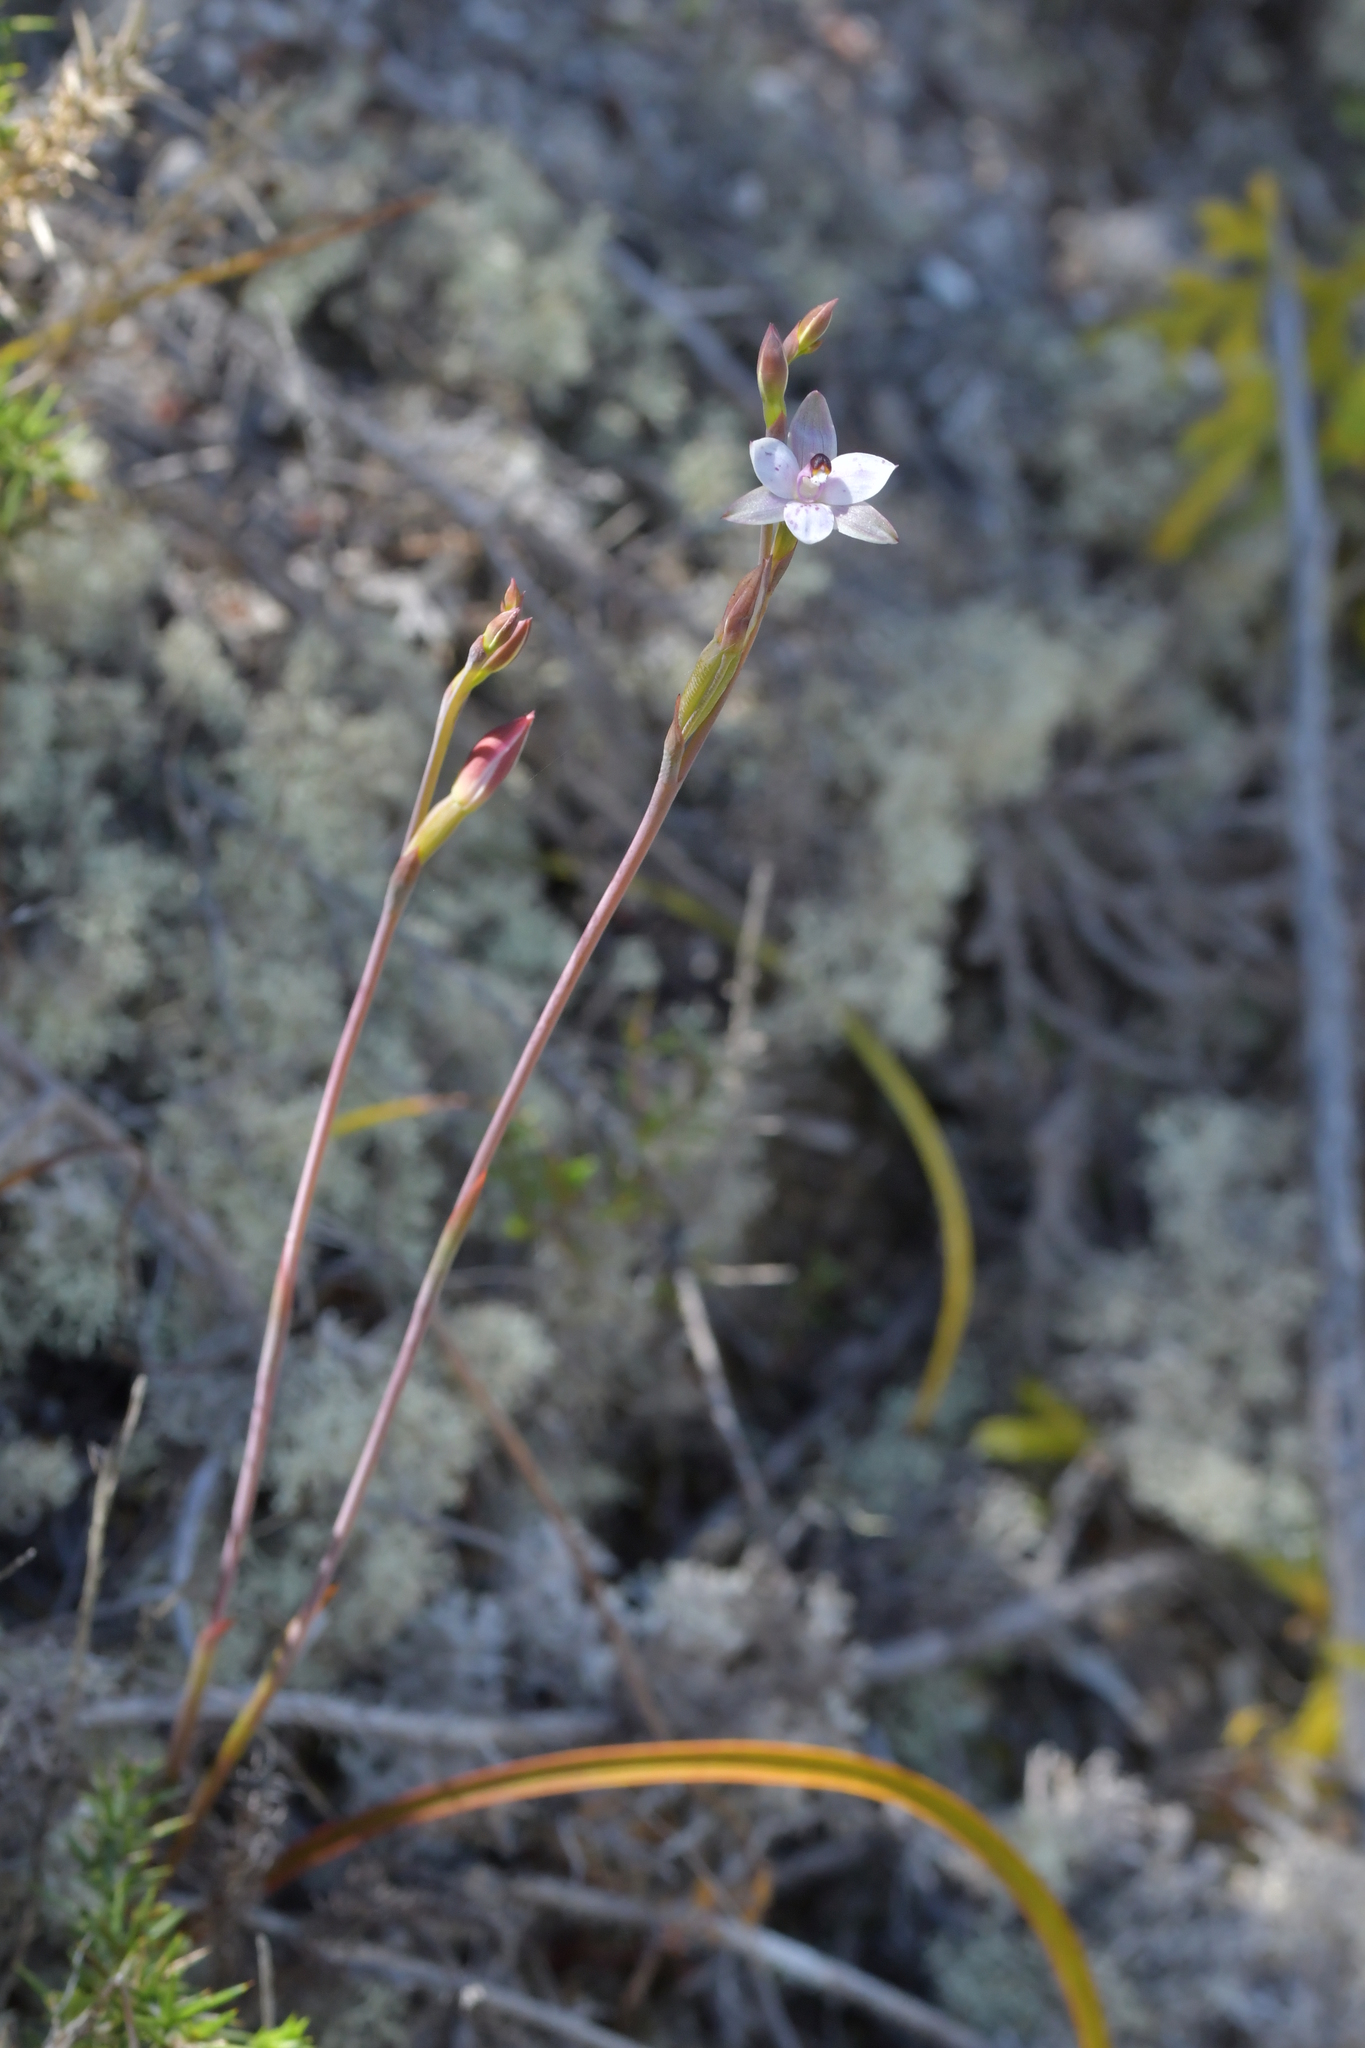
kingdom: Plantae
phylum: Tracheophyta
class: Liliopsida
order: Asparagales
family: Orchidaceae
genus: Thelymitra
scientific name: Thelymitra longifolia
